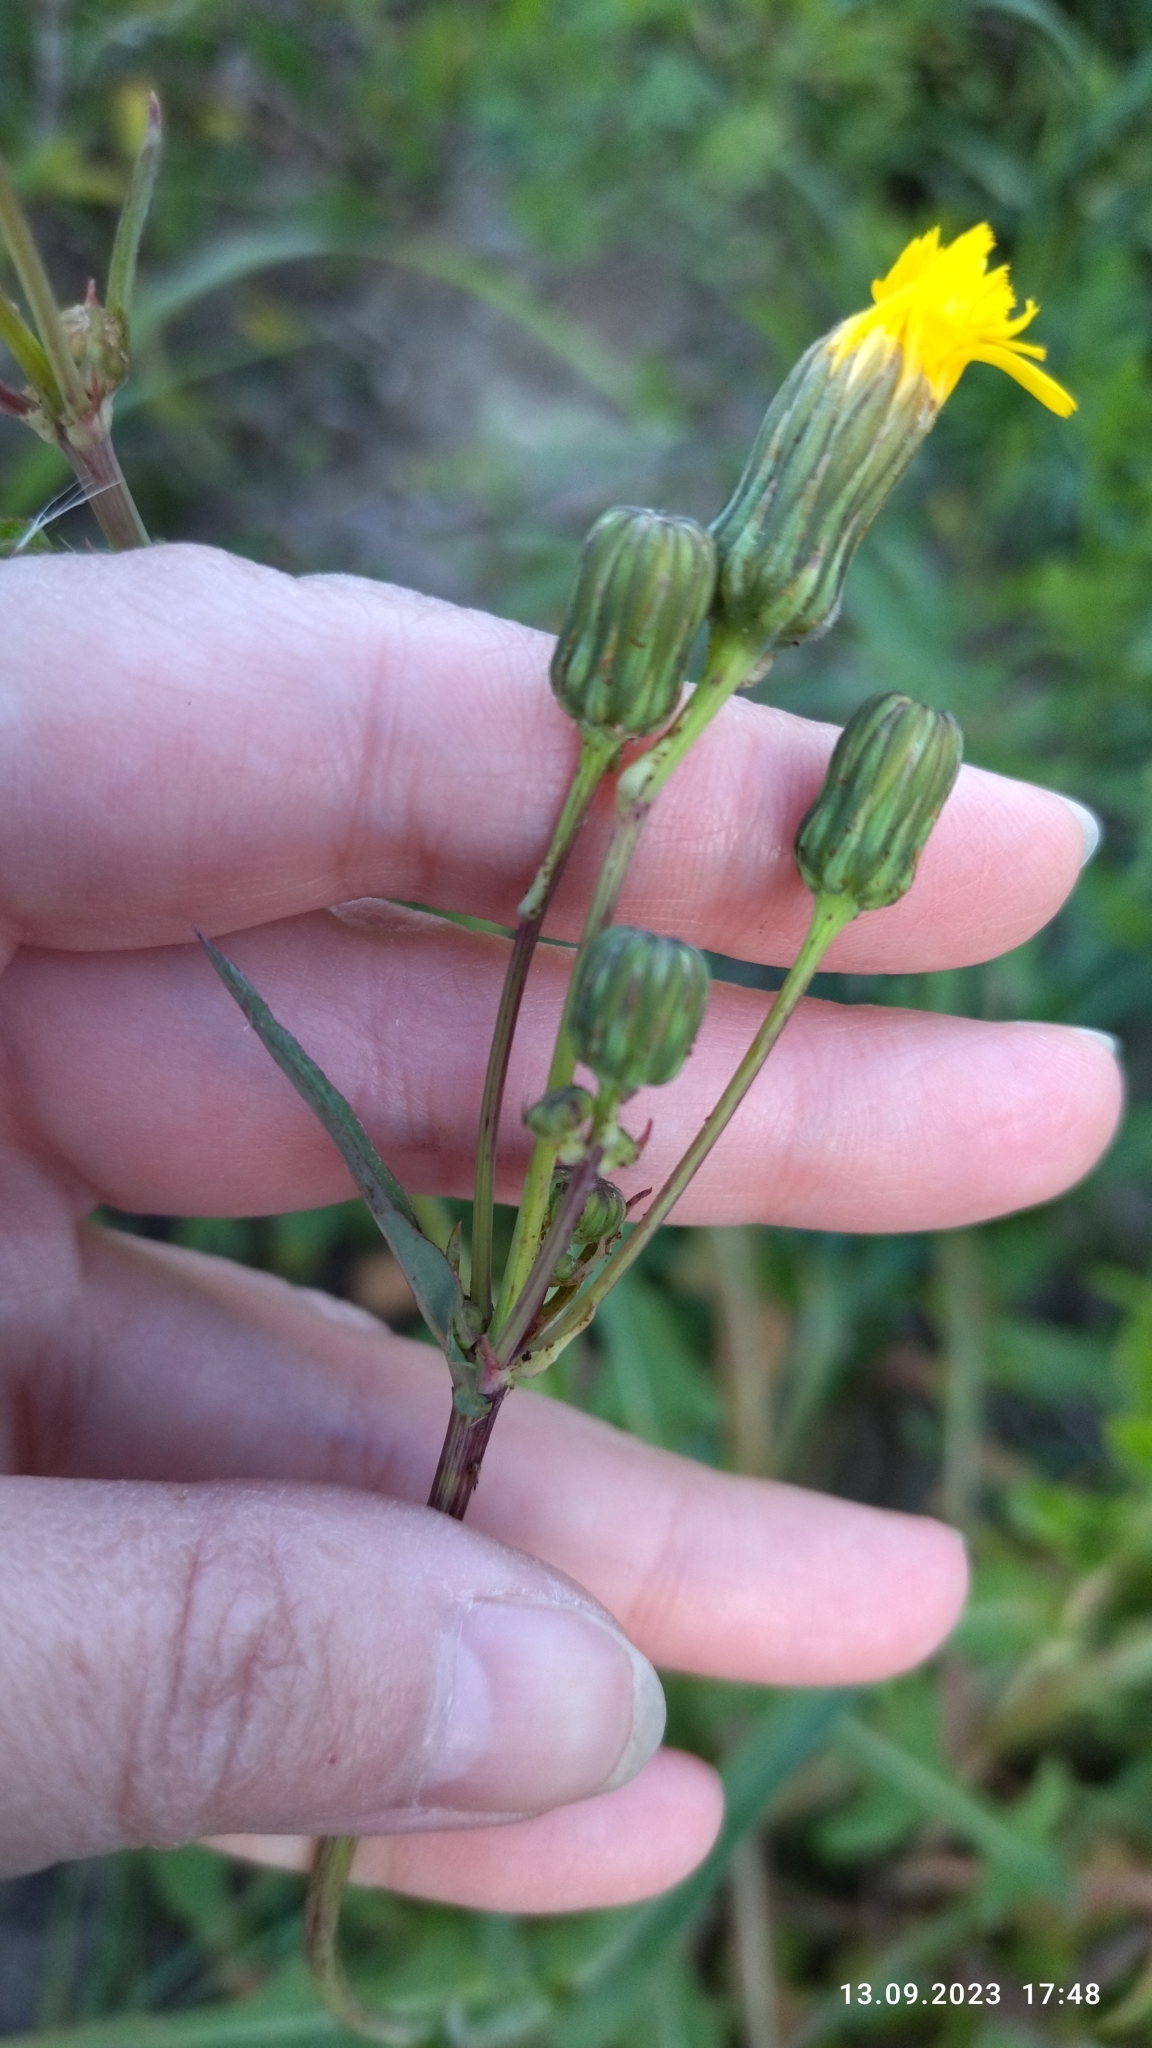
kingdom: Plantae
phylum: Tracheophyta
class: Magnoliopsida
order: Asterales
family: Asteraceae
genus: Sonchus
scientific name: Sonchus arvensis
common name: Perennial sow-thistle
